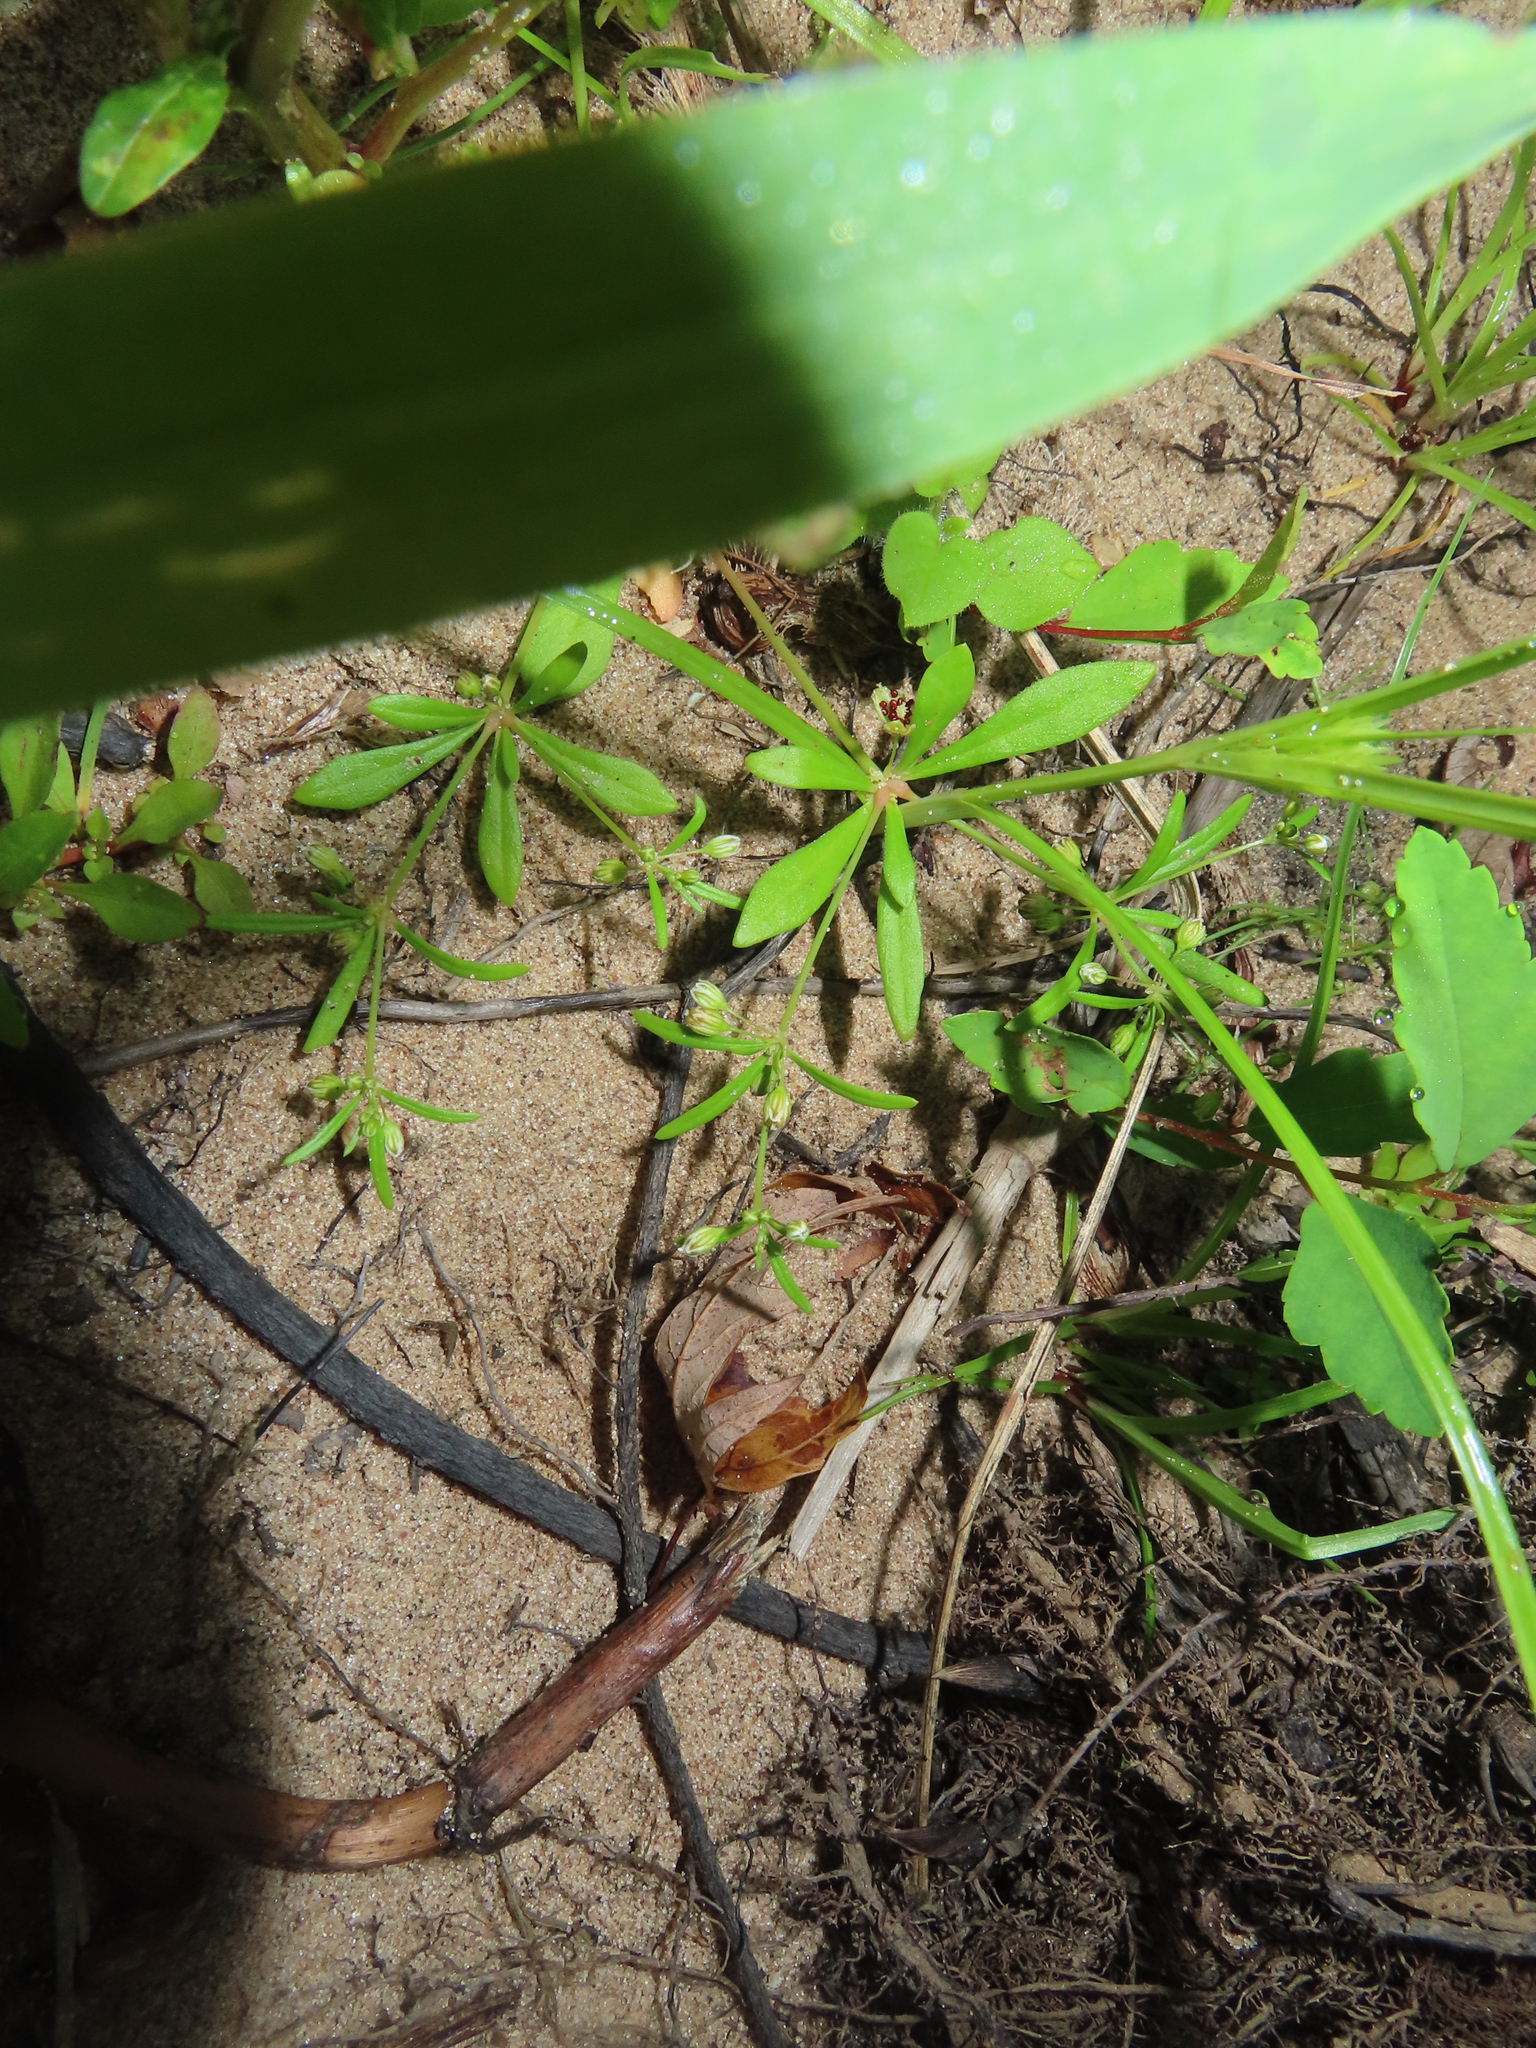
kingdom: Plantae
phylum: Tracheophyta
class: Magnoliopsida
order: Caryophyllales
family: Molluginaceae
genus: Mollugo
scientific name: Mollugo verticillata
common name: Green carpetweed
